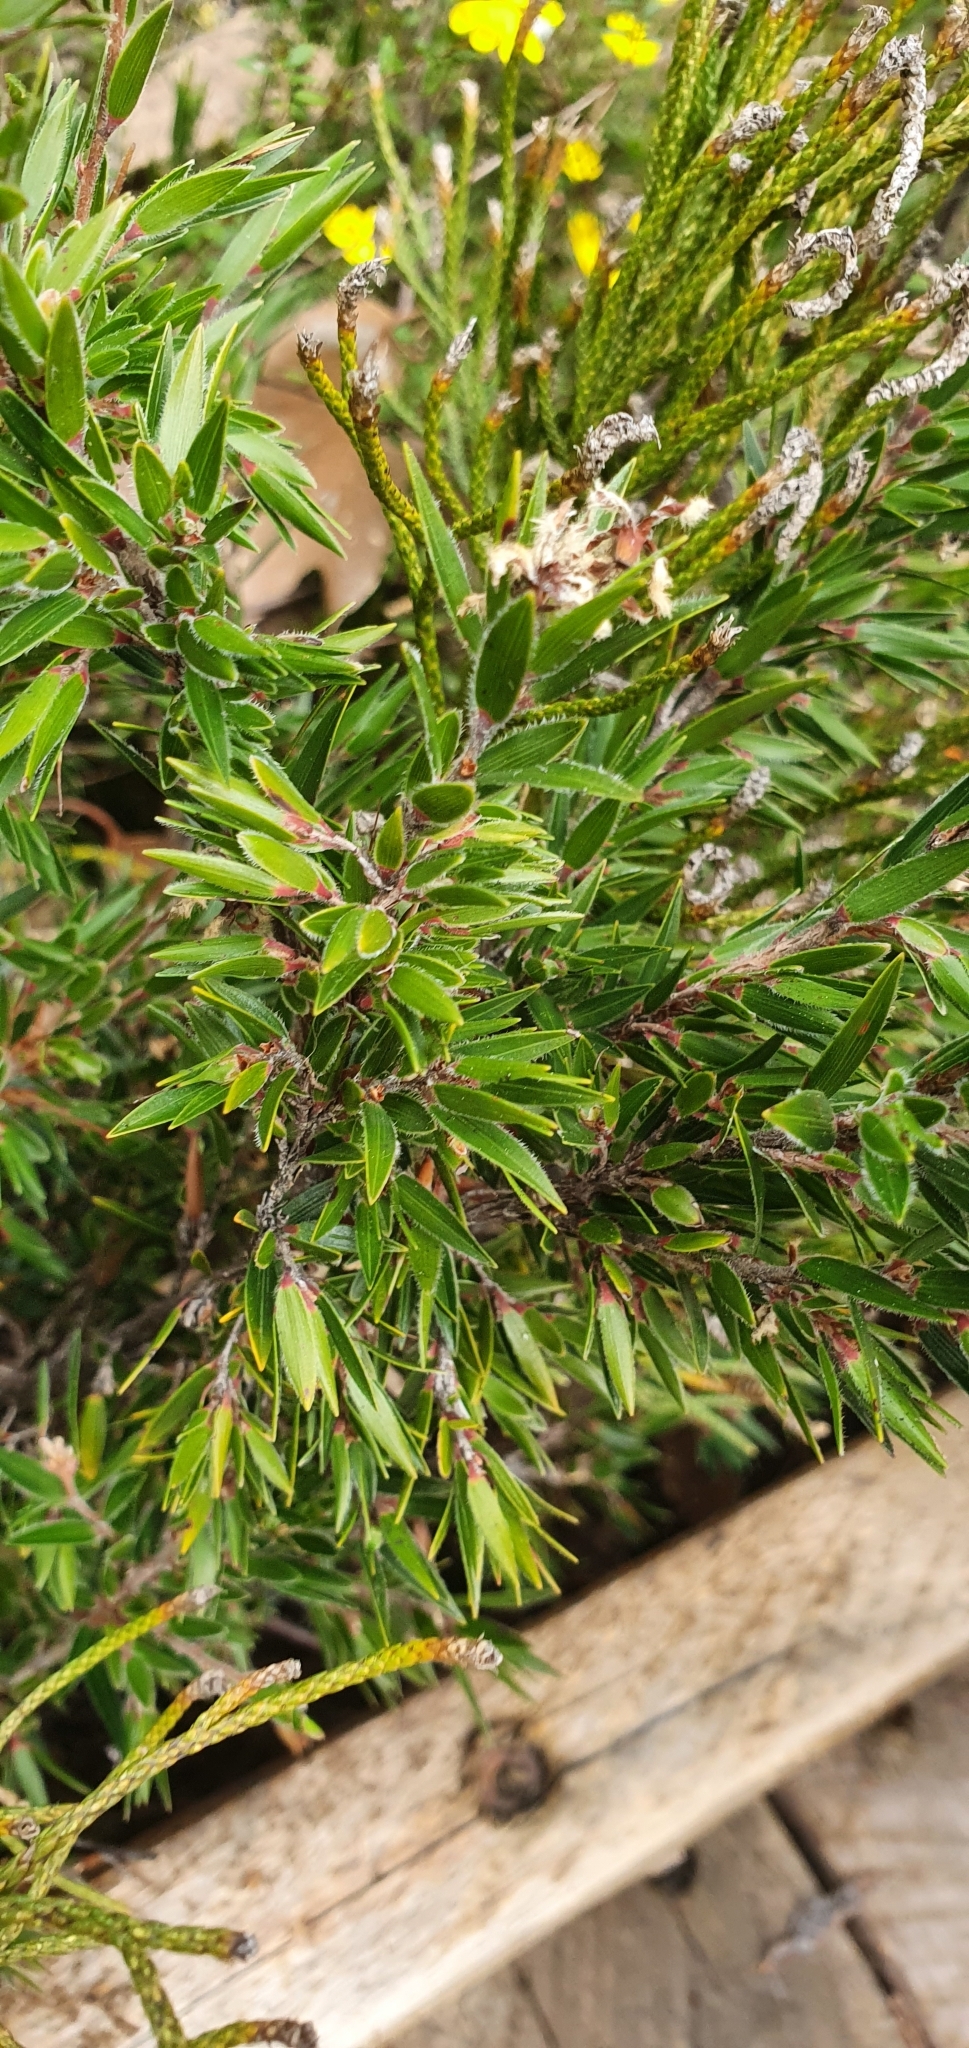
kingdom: Plantae
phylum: Tracheophyta
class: Magnoliopsida
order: Ericales
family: Ericaceae
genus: Pentachondra
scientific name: Pentachondra involucrata
